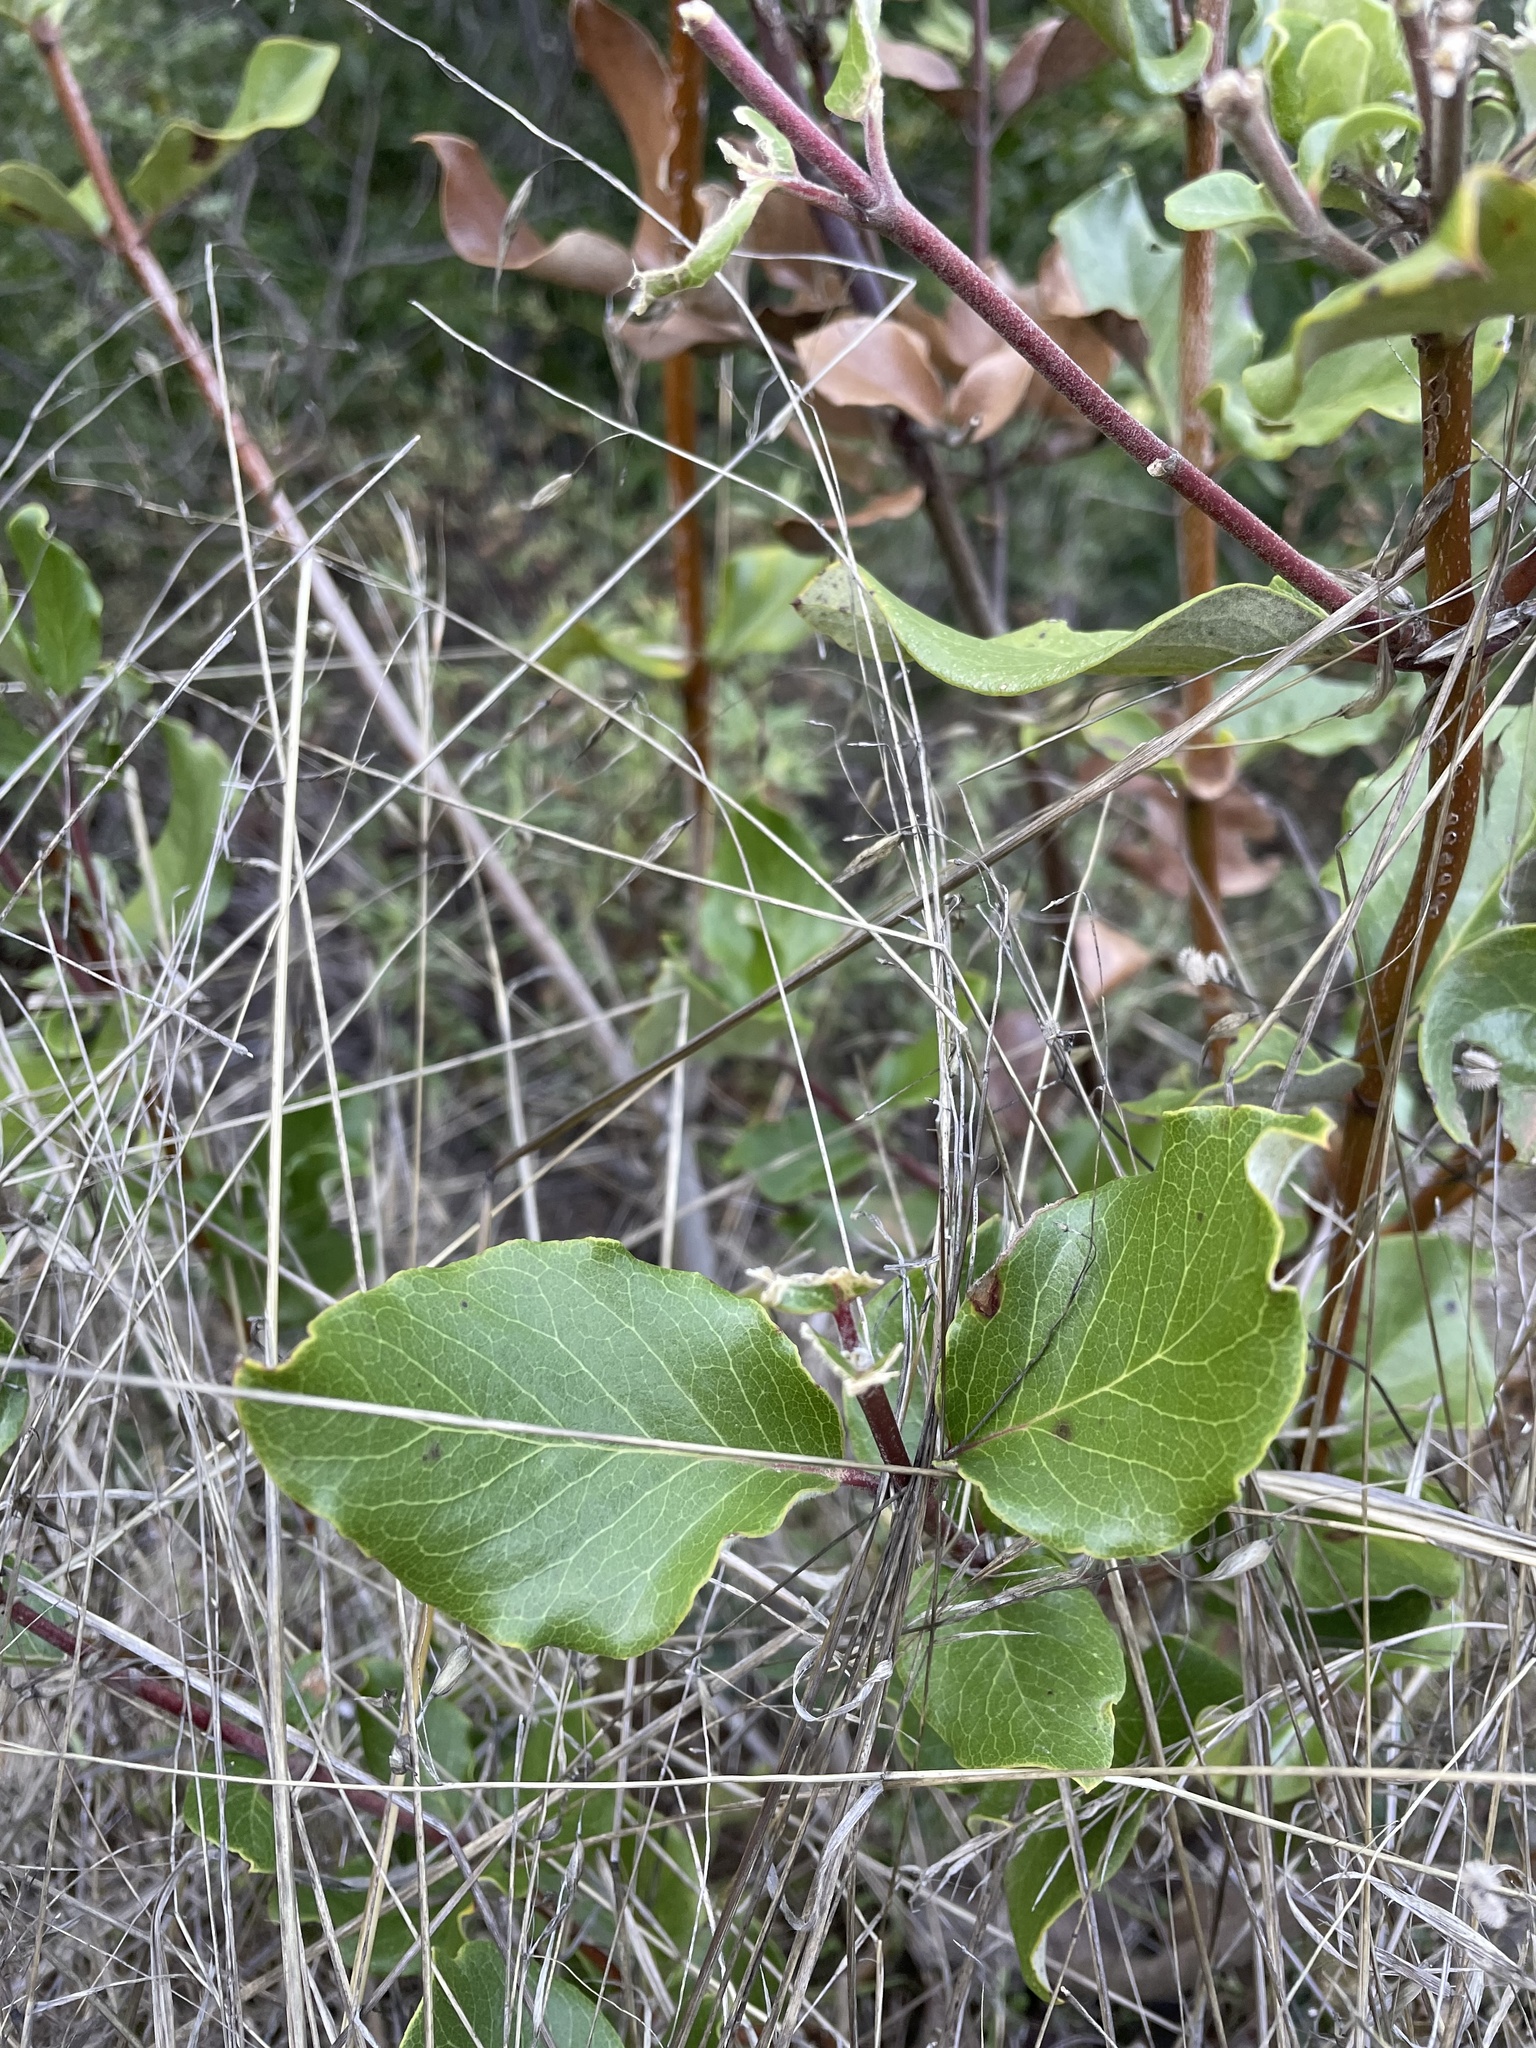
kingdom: Plantae
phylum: Tracheophyta
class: Magnoliopsida
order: Garryales
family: Garryaceae
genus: Garrya
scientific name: Garrya elliptica
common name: Silk-tassel
